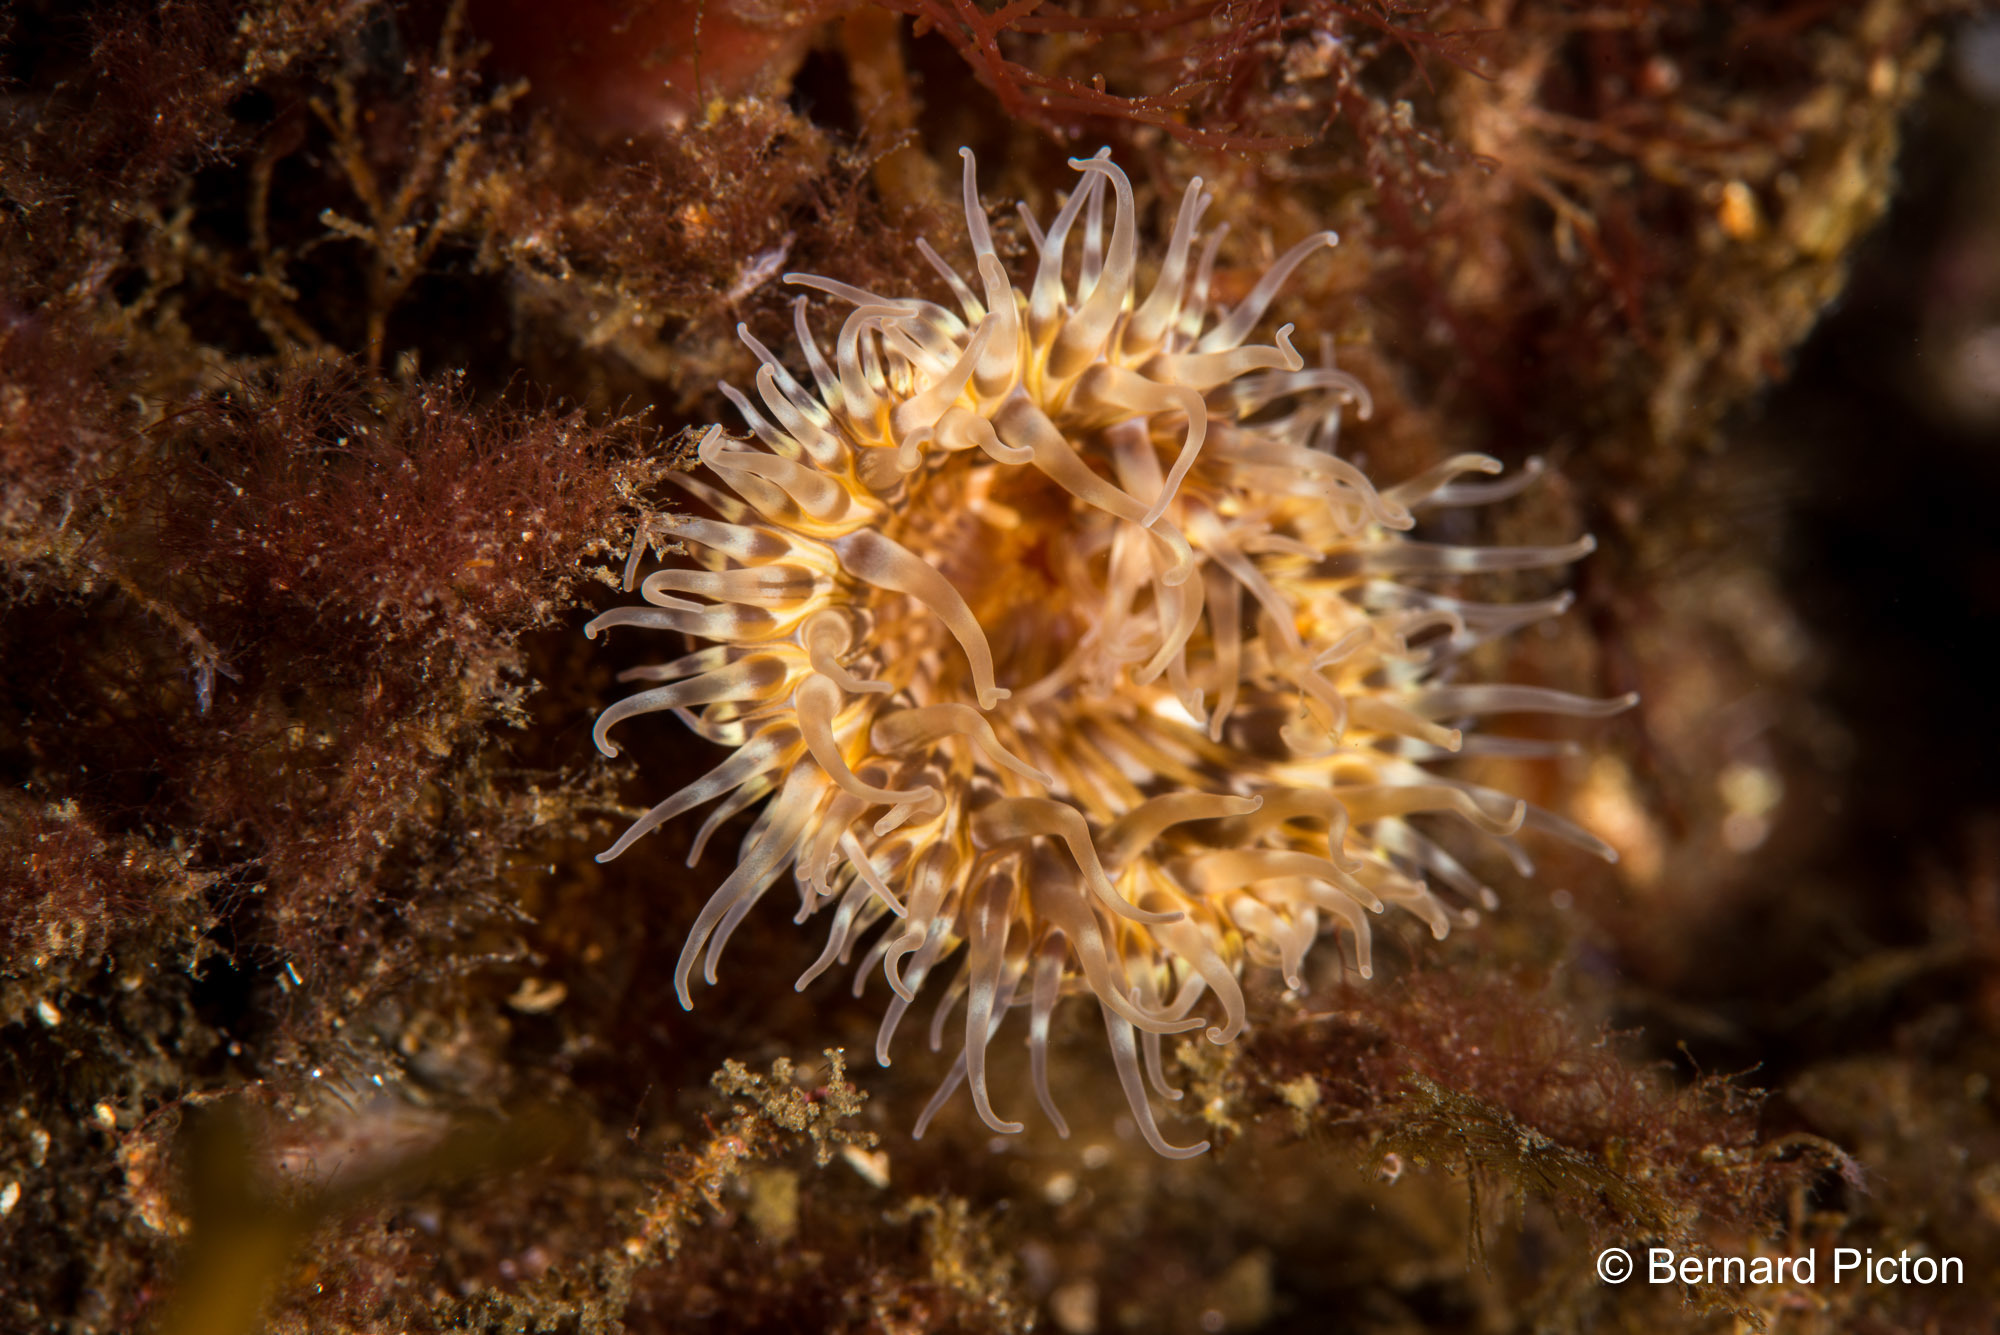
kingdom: Animalia
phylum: Cnidaria
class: Anthozoa
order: Actiniaria
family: Sagartiidae
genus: Cylista
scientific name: Cylista elegans
